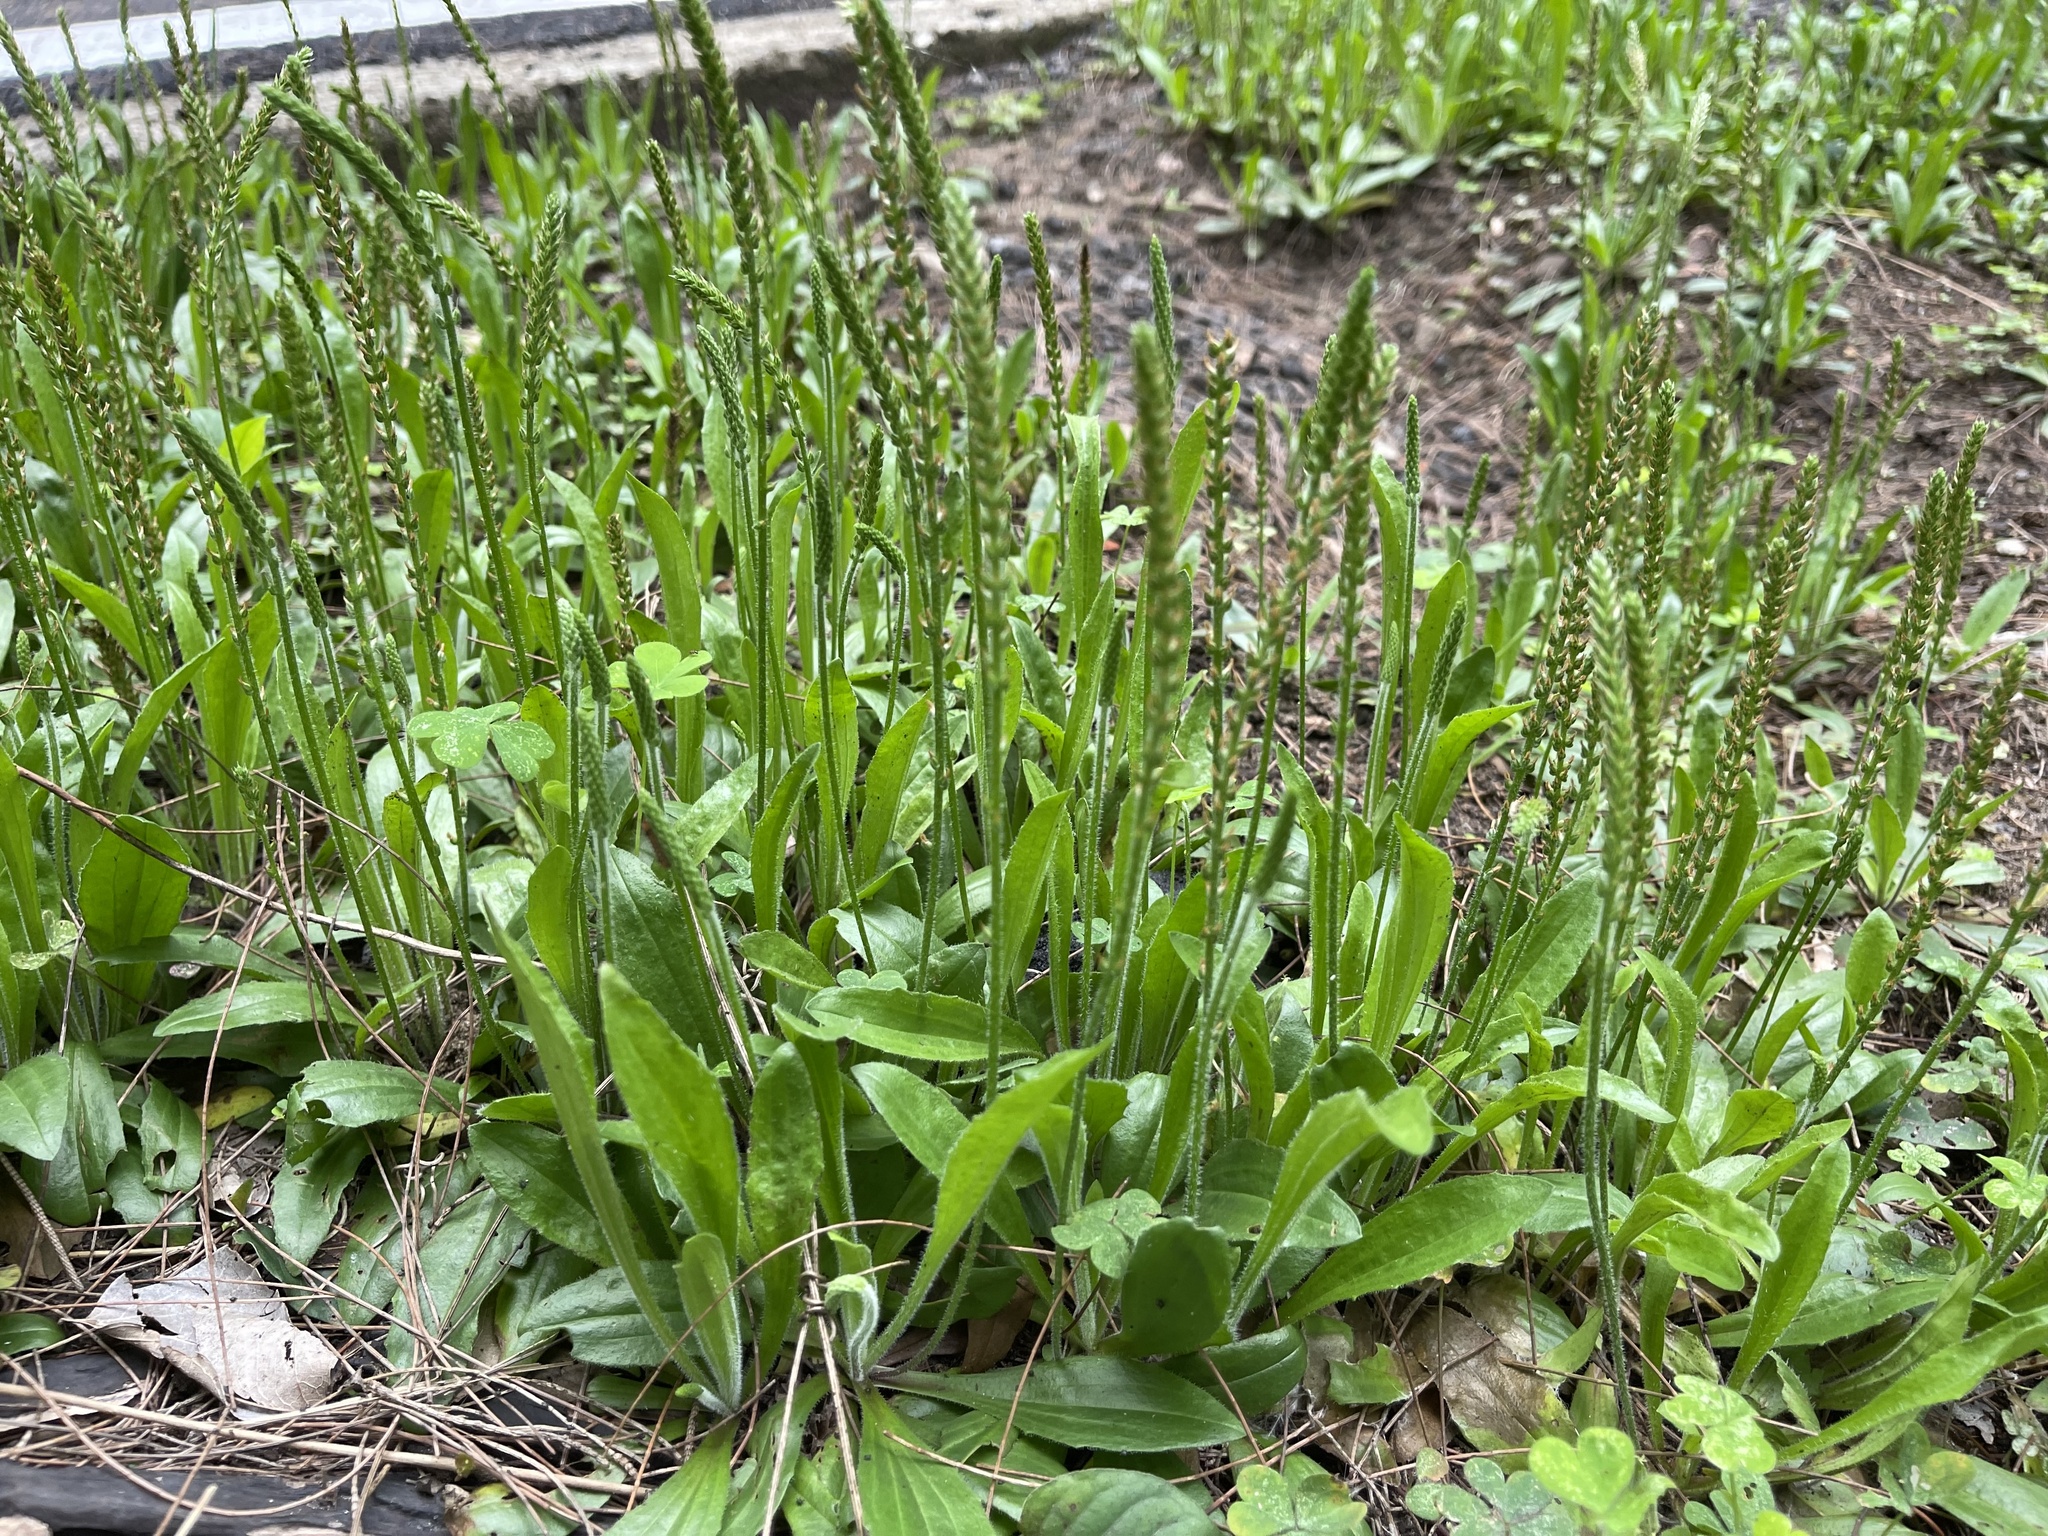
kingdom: Plantae
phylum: Tracheophyta
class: Magnoliopsida
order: Lamiales
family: Plantaginaceae
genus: Plantago
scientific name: Plantago virginica
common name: Hoary plantain
